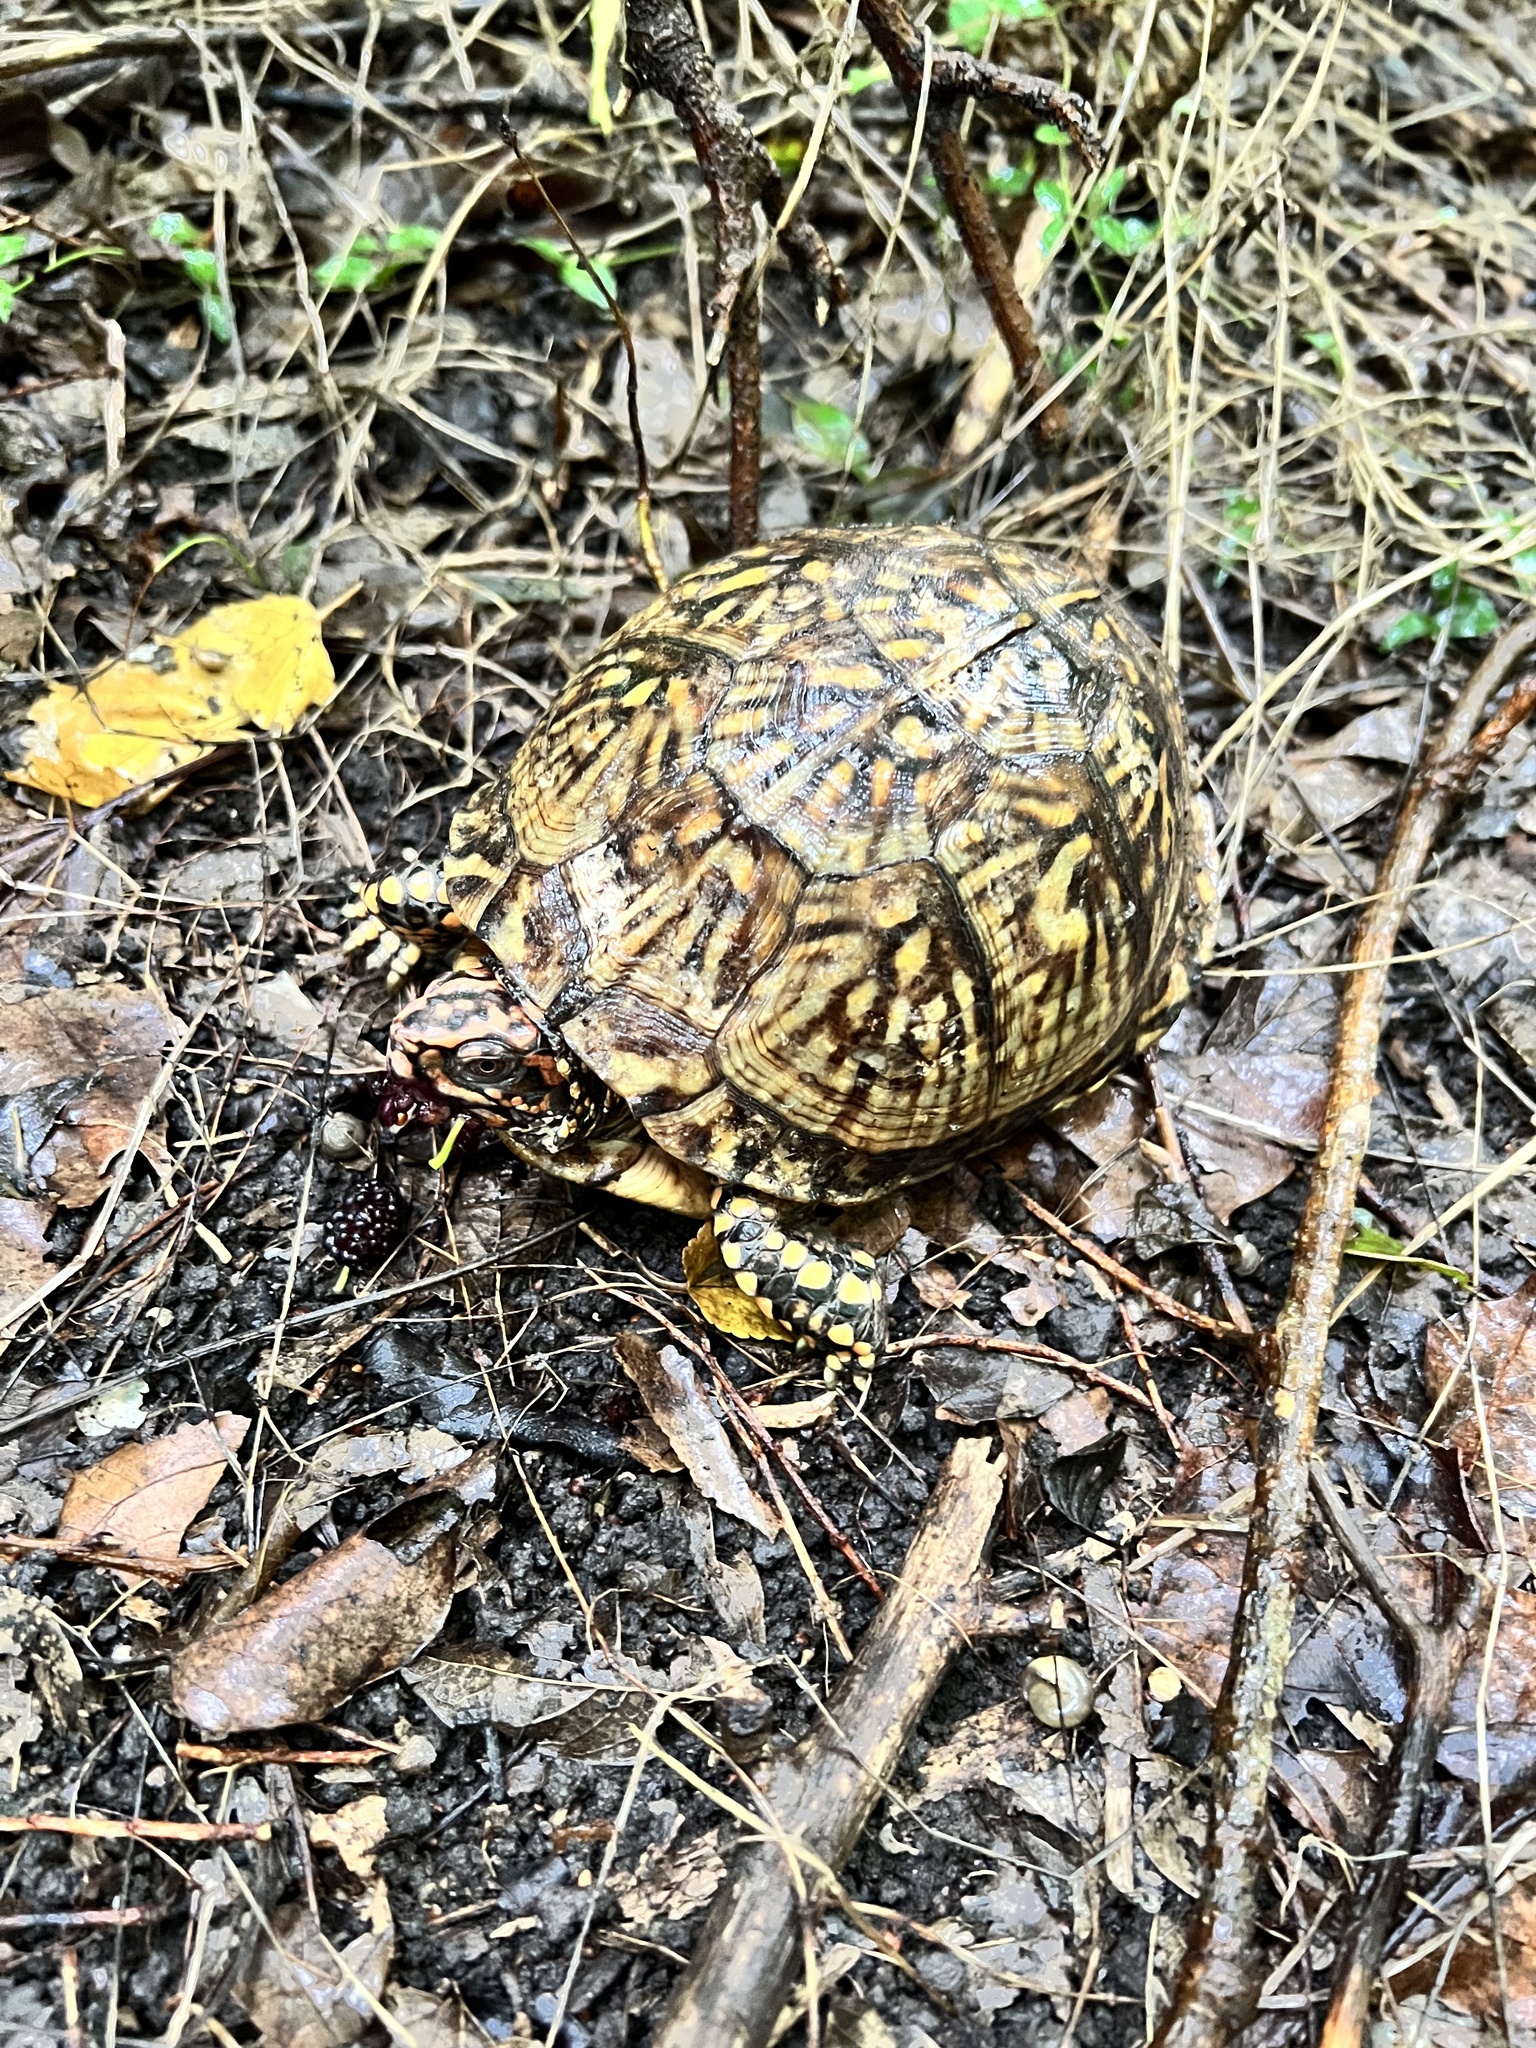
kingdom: Animalia
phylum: Chordata
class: Testudines
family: Emydidae
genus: Terrapene
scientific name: Terrapene carolina
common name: Common box turtle
